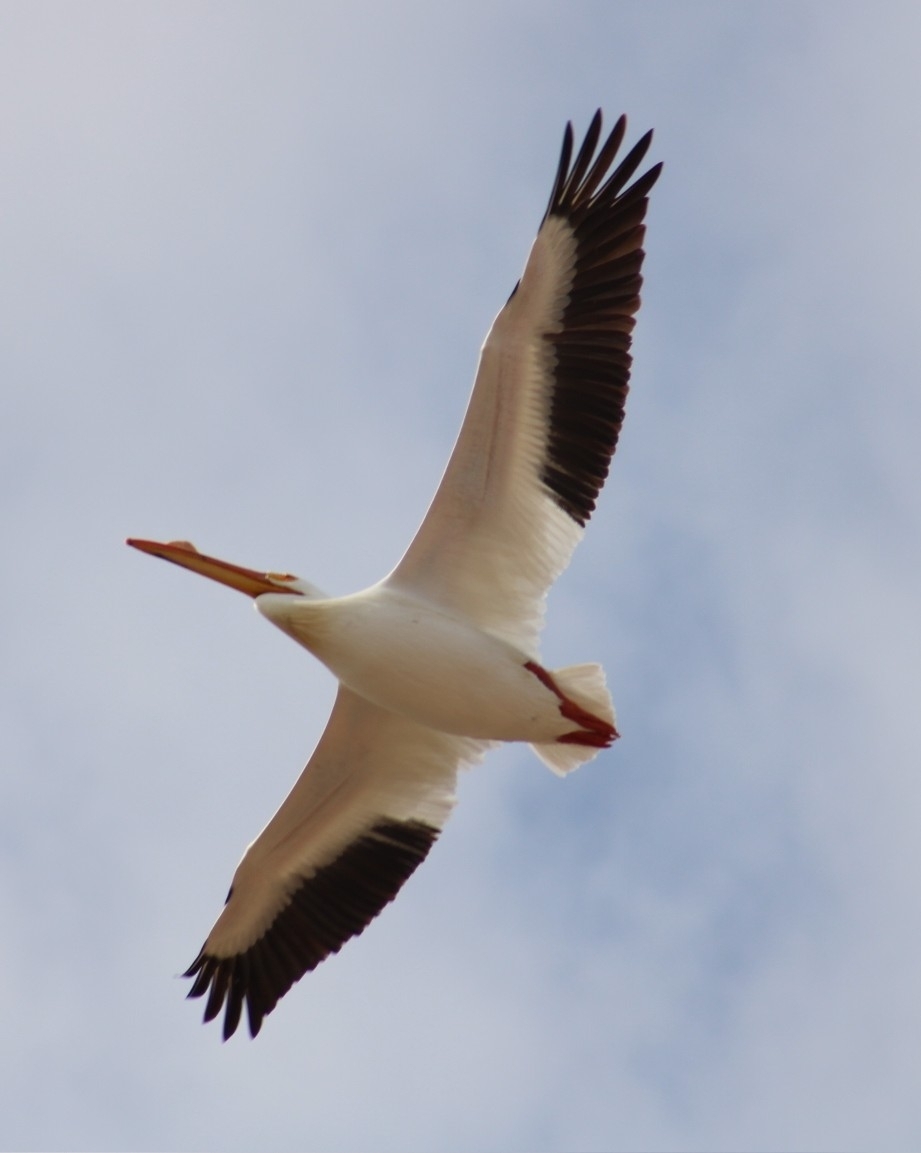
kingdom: Animalia
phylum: Chordata
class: Aves
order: Pelecaniformes
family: Pelecanidae
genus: Pelecanus
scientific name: Pelecanus erythrorhynchos
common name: American white pelican
